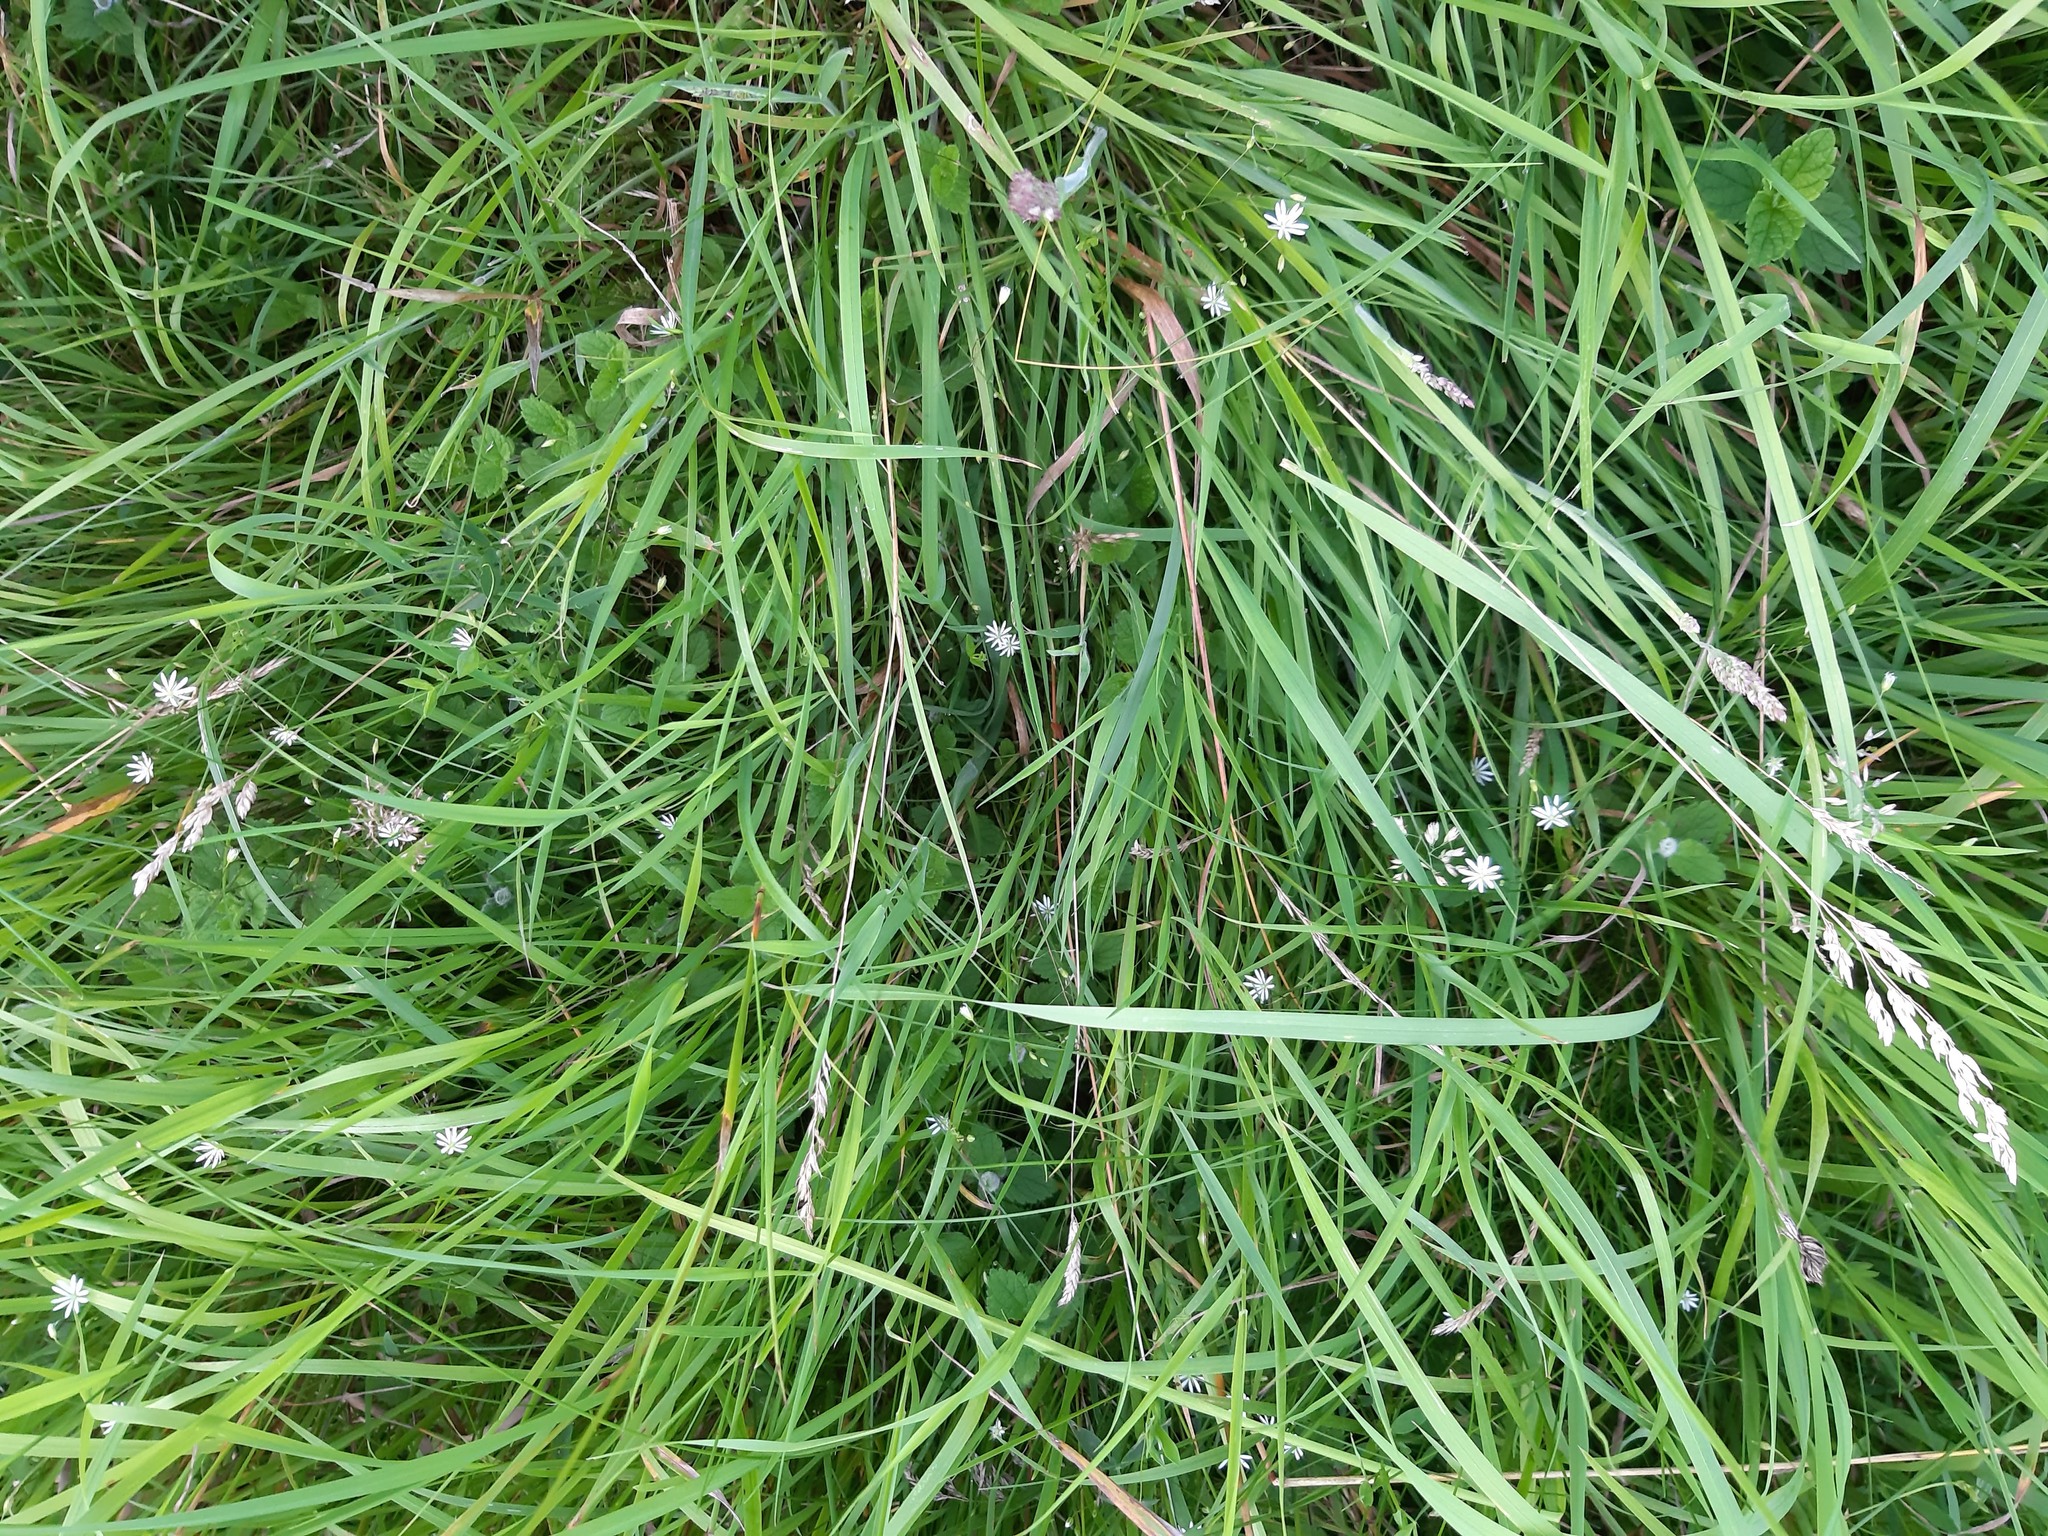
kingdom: Plantae
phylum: Tracheophyta
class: Magnoliopsida
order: Caryophyllales
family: Caryophyllaceae
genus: Stellaria
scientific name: Stellaria graminea
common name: Grass-like starwort
